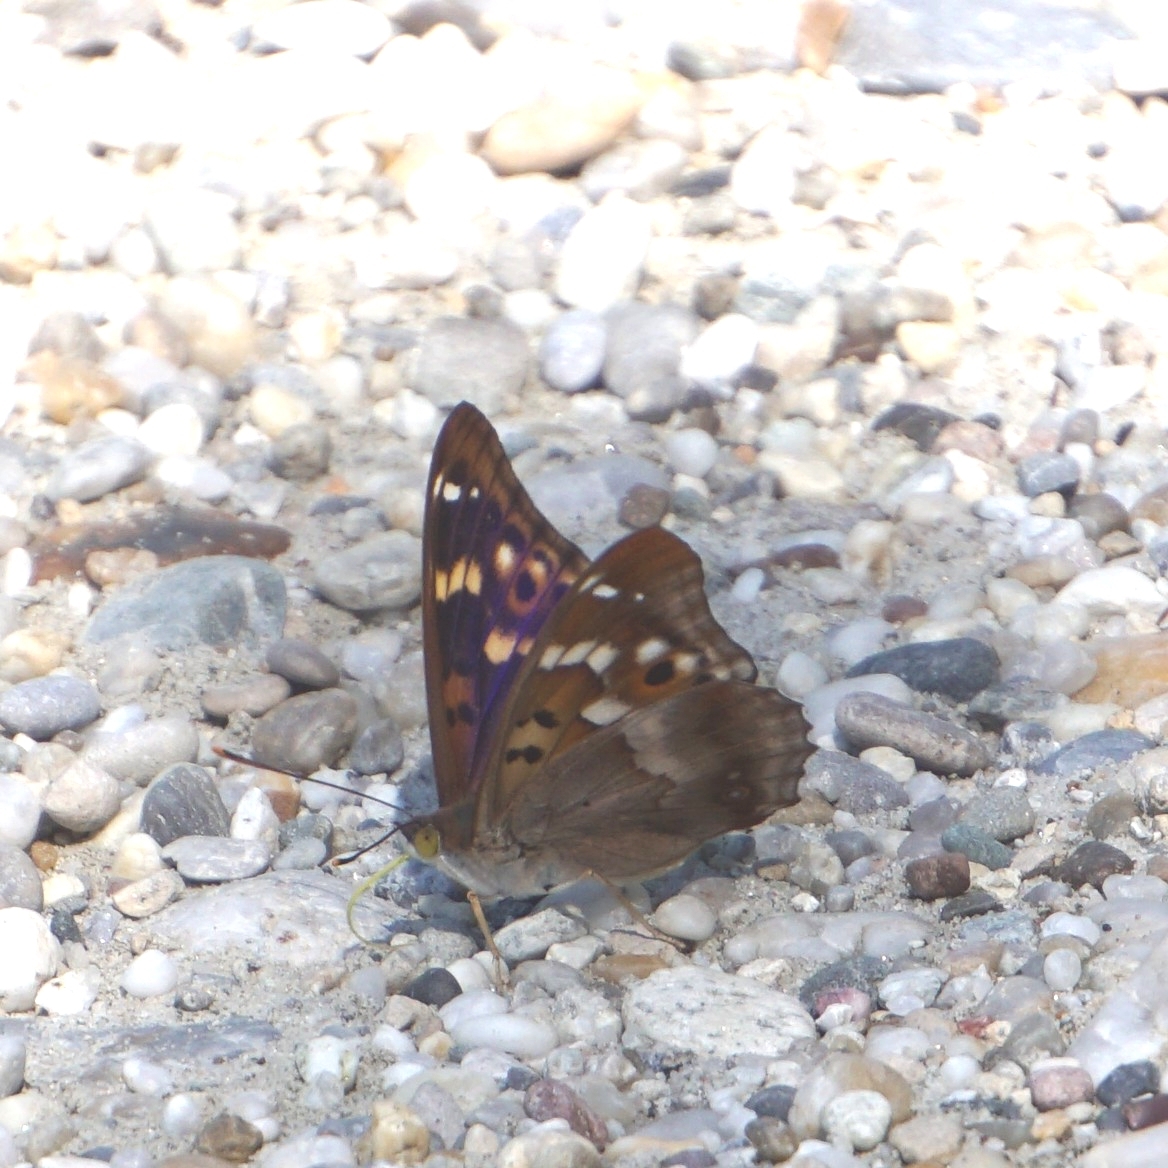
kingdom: Animalia
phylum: Arthropoda
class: Insecta
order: Lepidoptera
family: Nymphalidae
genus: Apatura
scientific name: Apatura ilia
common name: Lesser purple emperor
